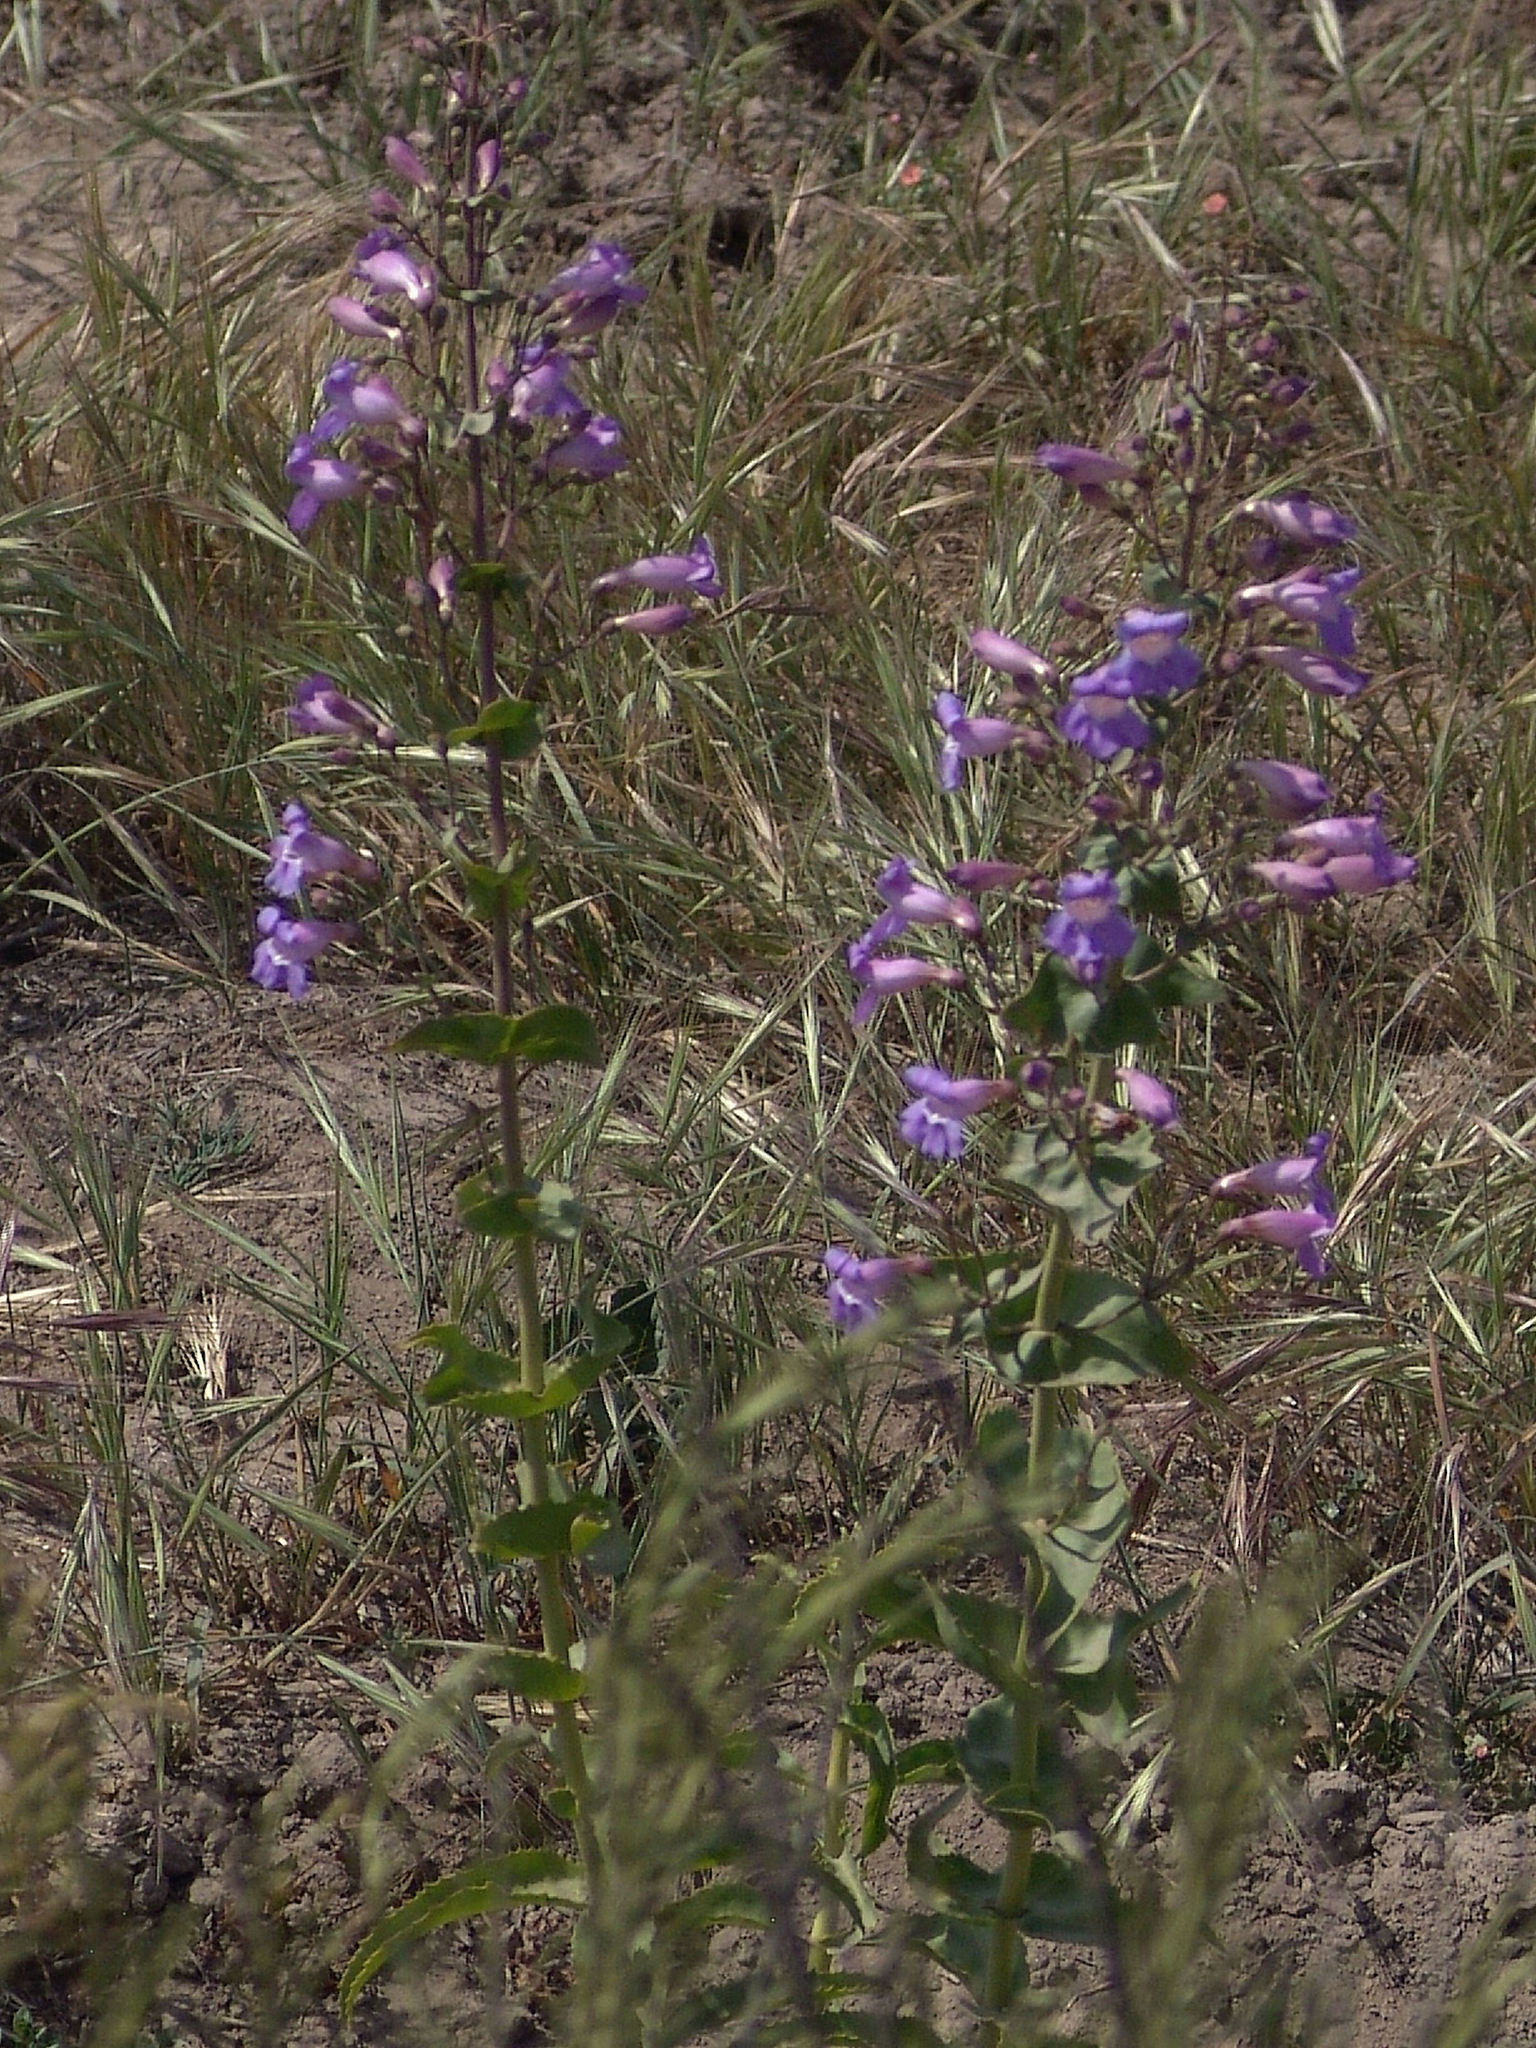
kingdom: Plantae
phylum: Tracheophyta
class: Magnoliopsida
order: Lamiales
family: Plantaginaceae
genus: Penstemon
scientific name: Penstemon spectabilis
